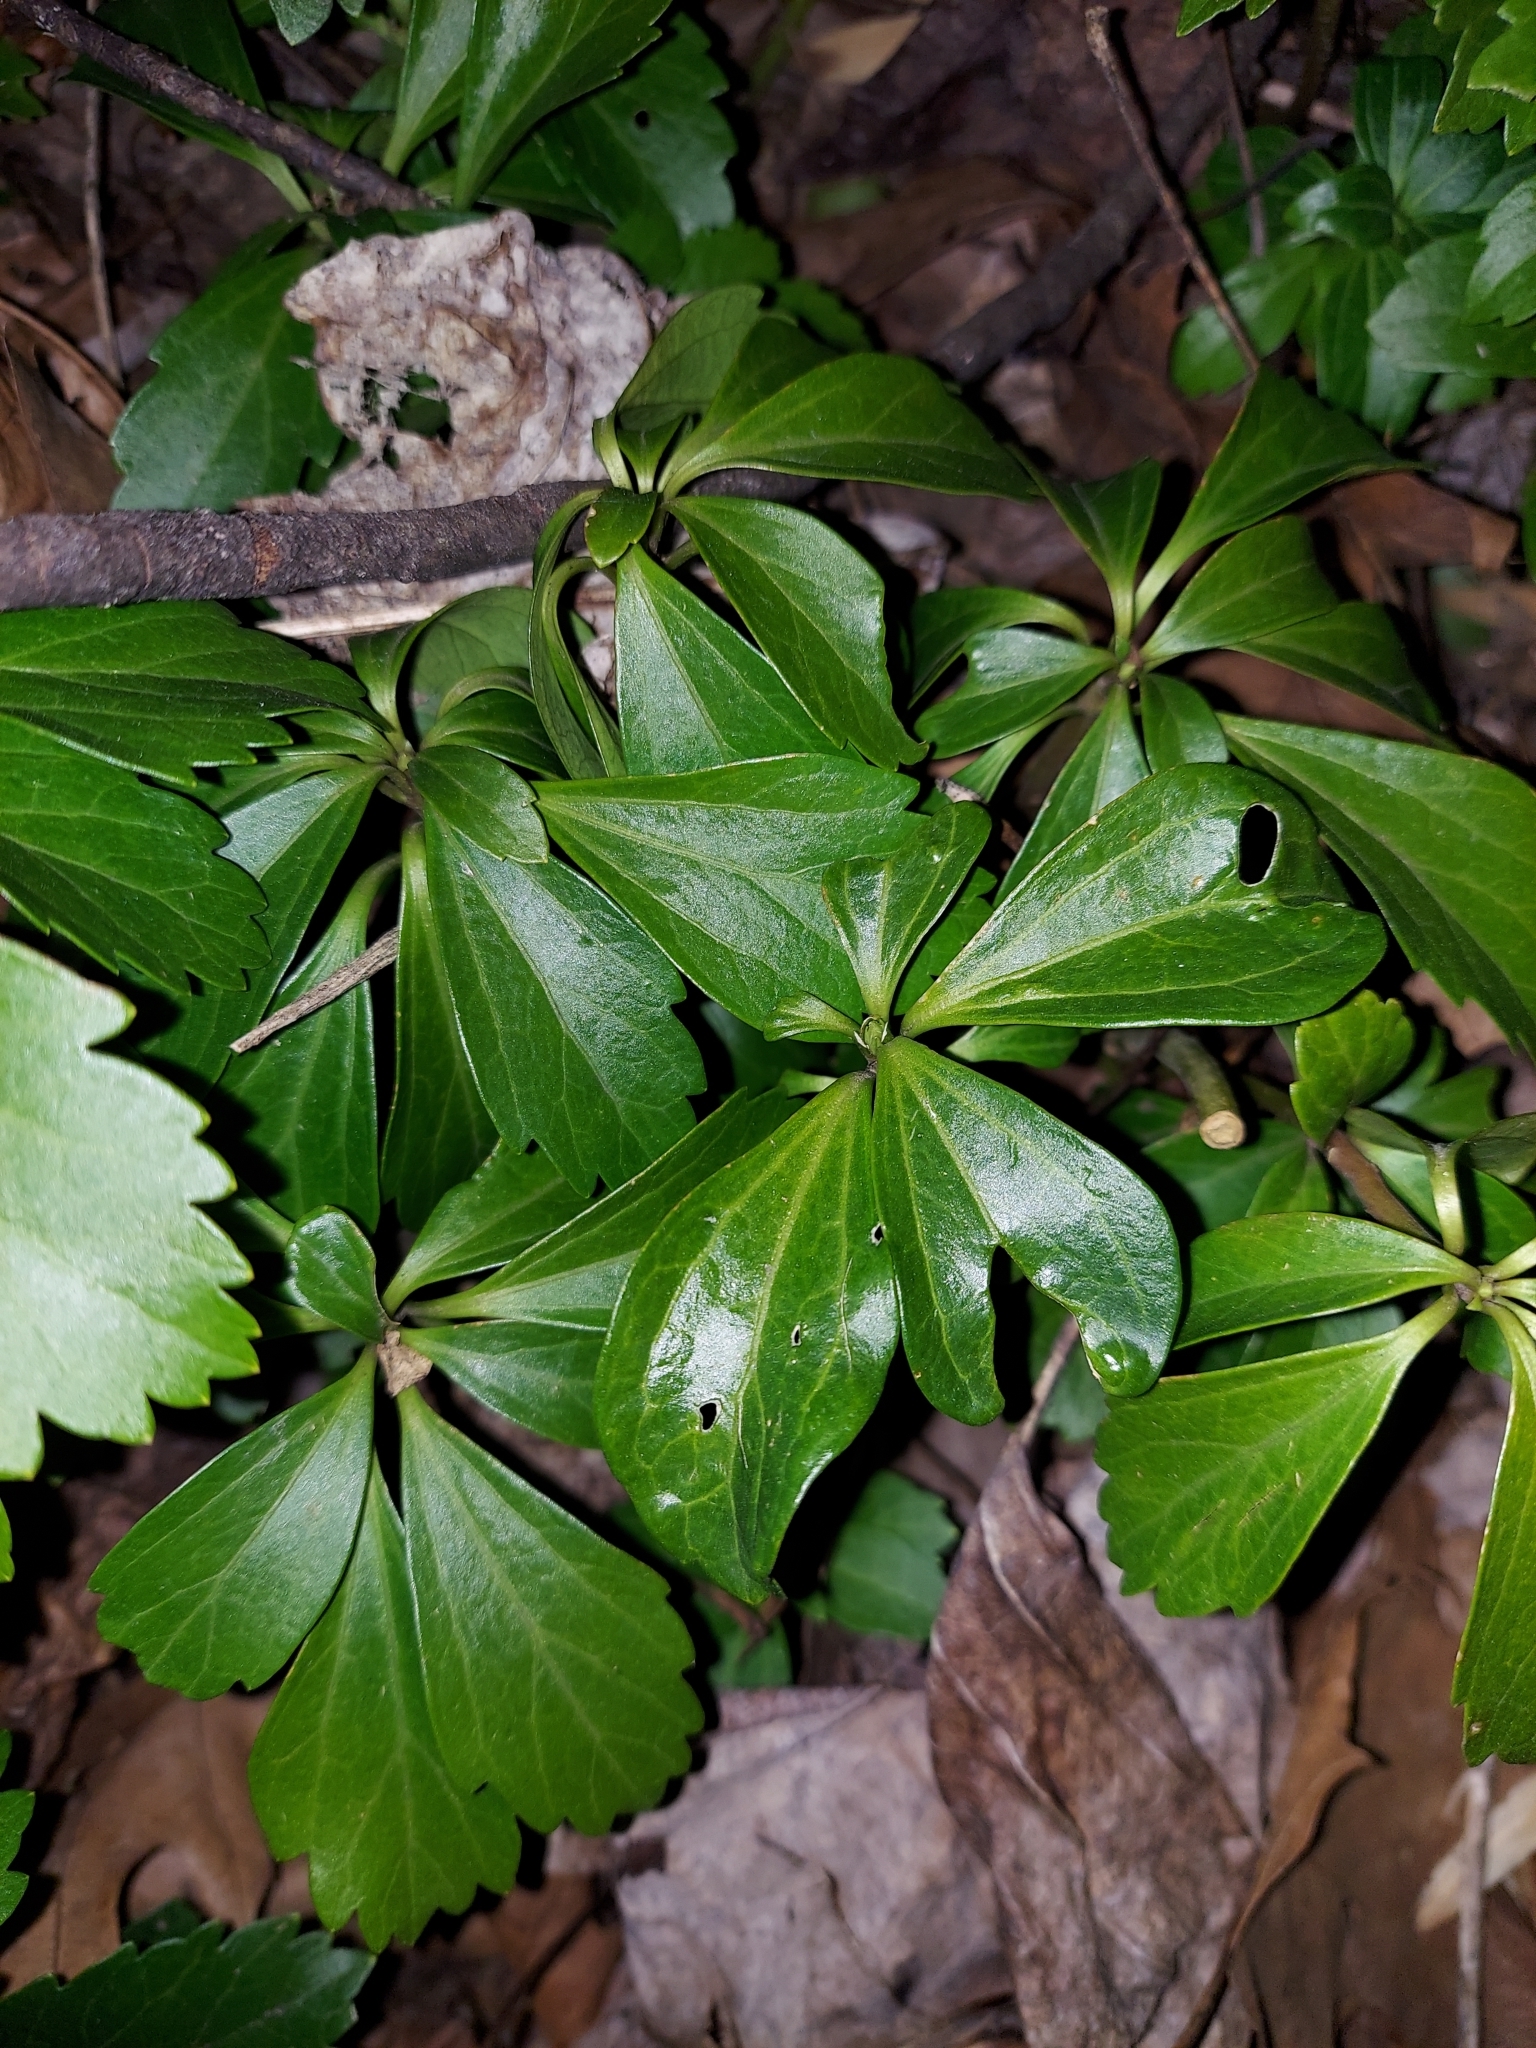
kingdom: Plantae
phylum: Tracheophyta
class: Magnoliopsida
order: Buxales
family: Buxaceae
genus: Pachysandra
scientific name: Pachysandra terminalis
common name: Japanese pachysandra
